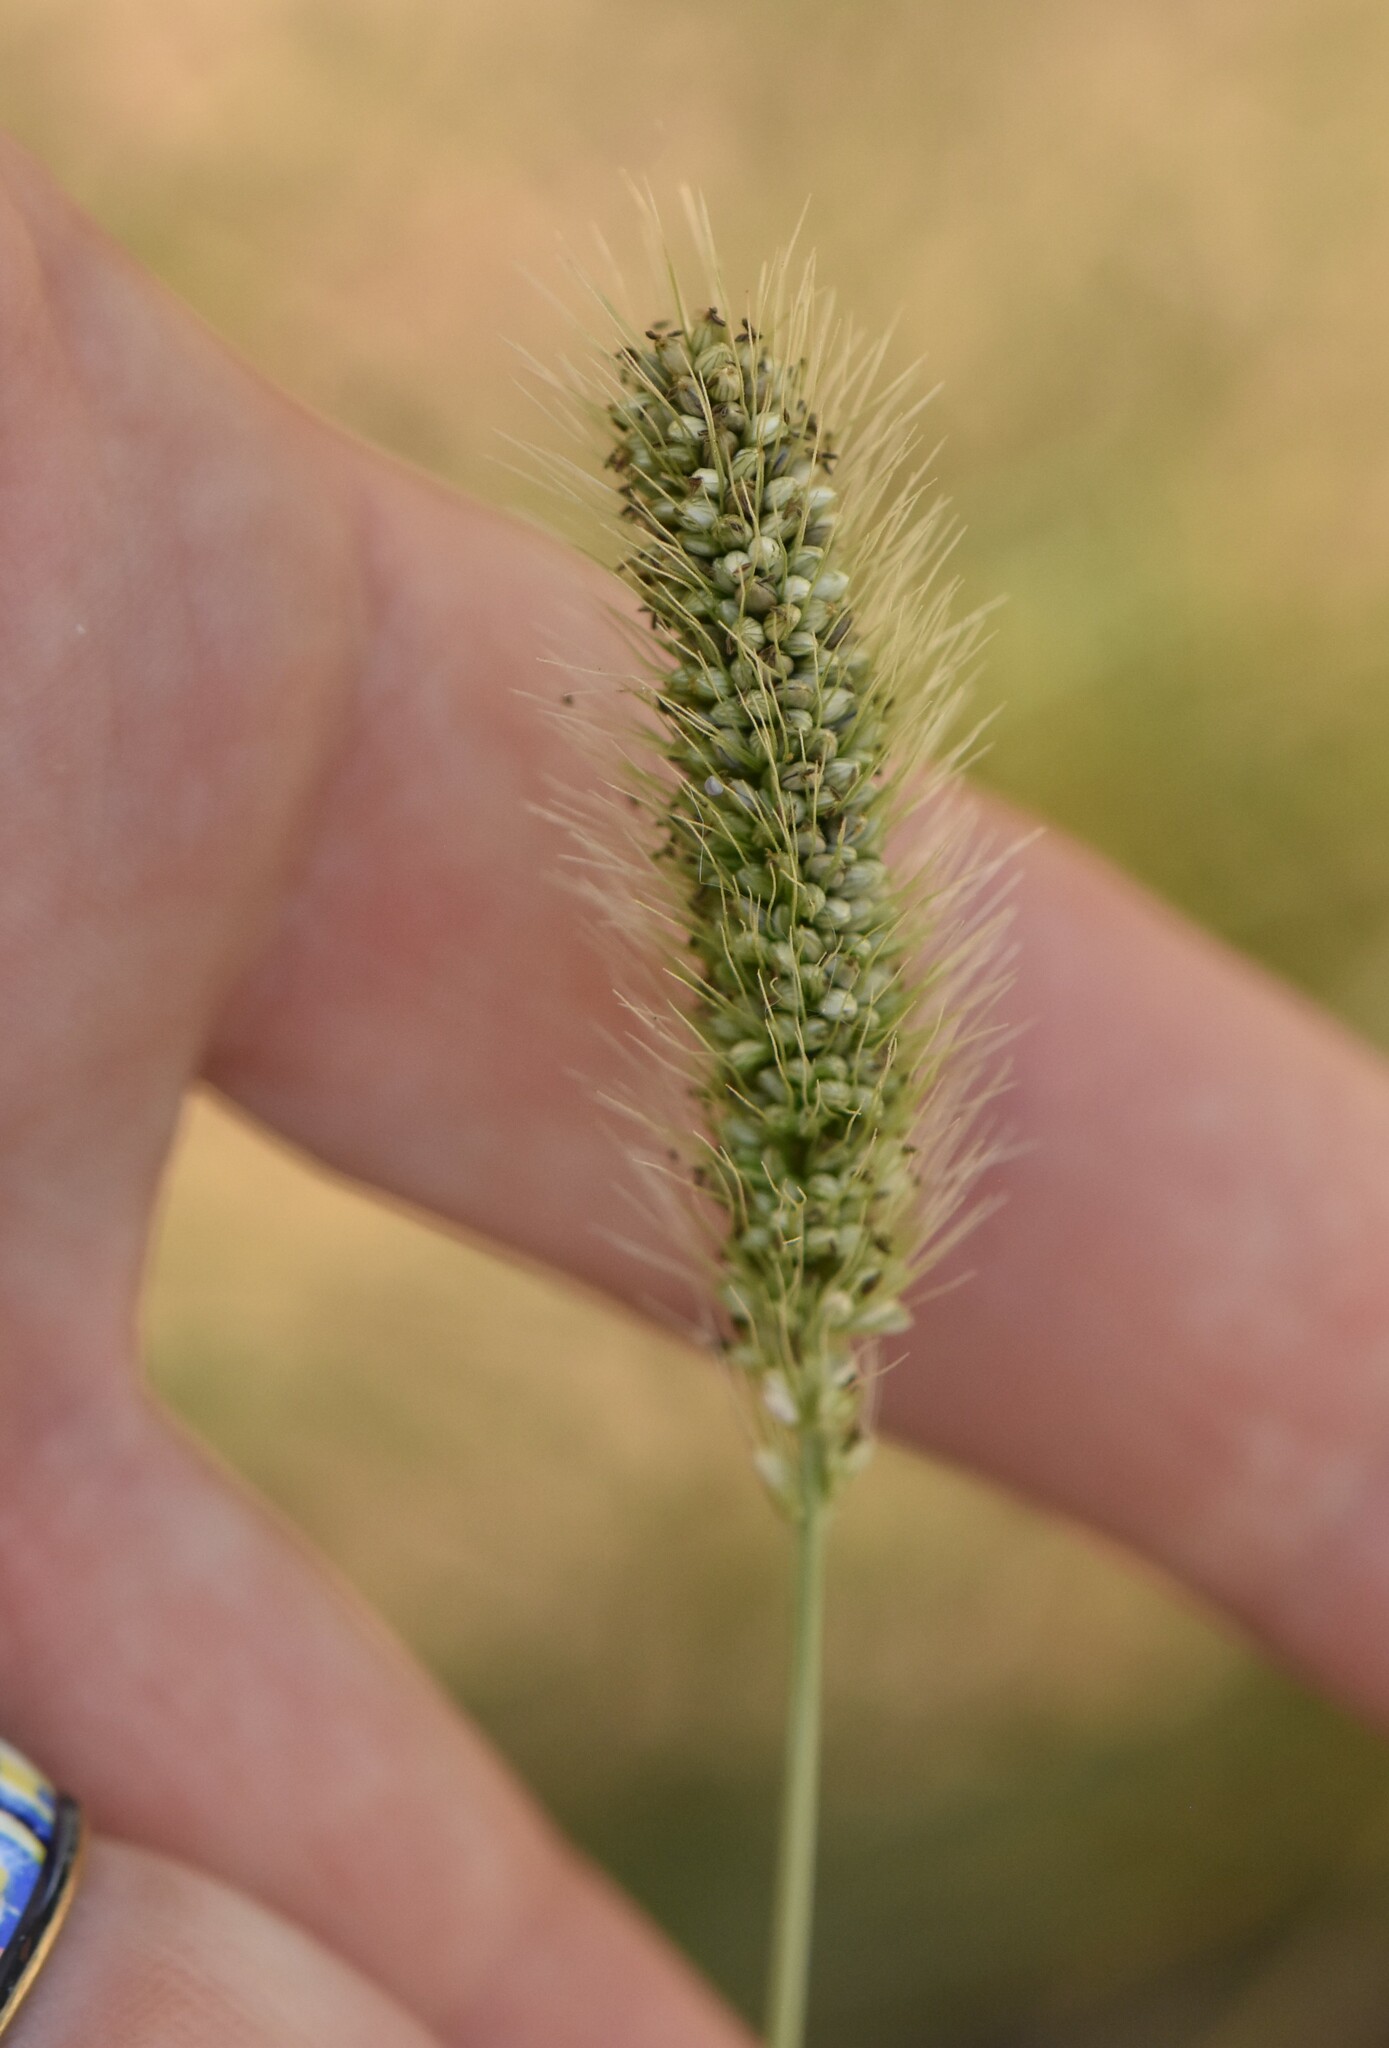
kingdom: Plantae
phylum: Tracheophyta
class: Liliopsida
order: Poales
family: Poaceae
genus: Setaria
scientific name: Setaria viridis
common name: Green bristlegrass
